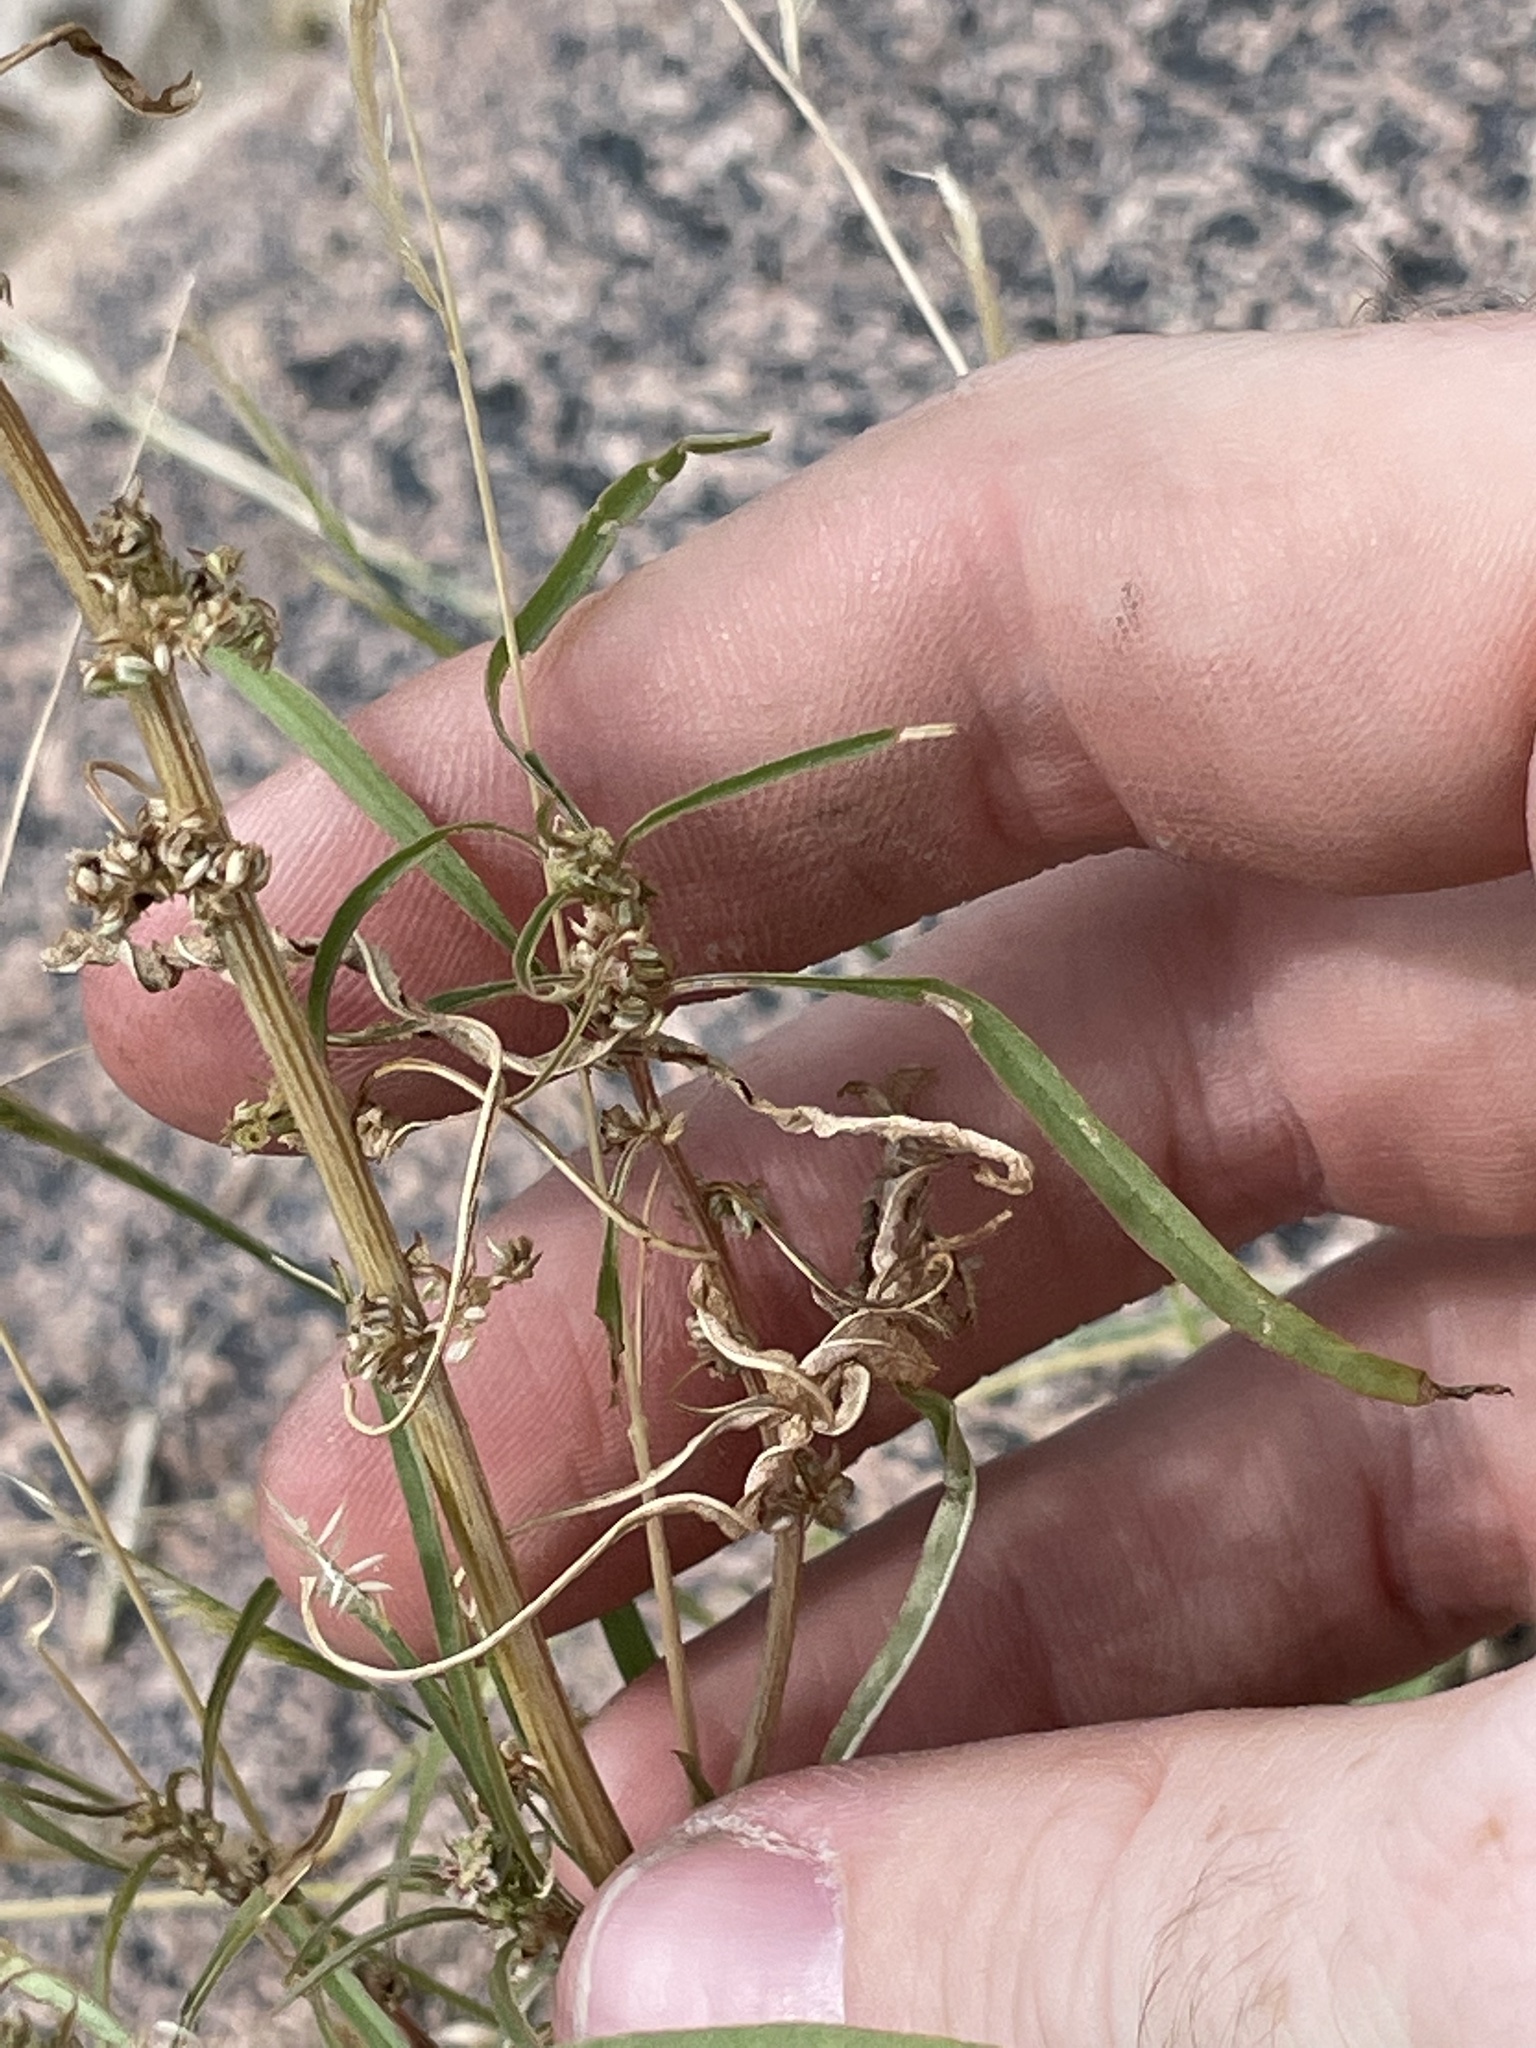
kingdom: Plantae
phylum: Tracheophyta
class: Magnoliopsida
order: Caryophyllales
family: Amaranthaceae
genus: Amaranthus
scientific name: Amaranthus fimbriatus
